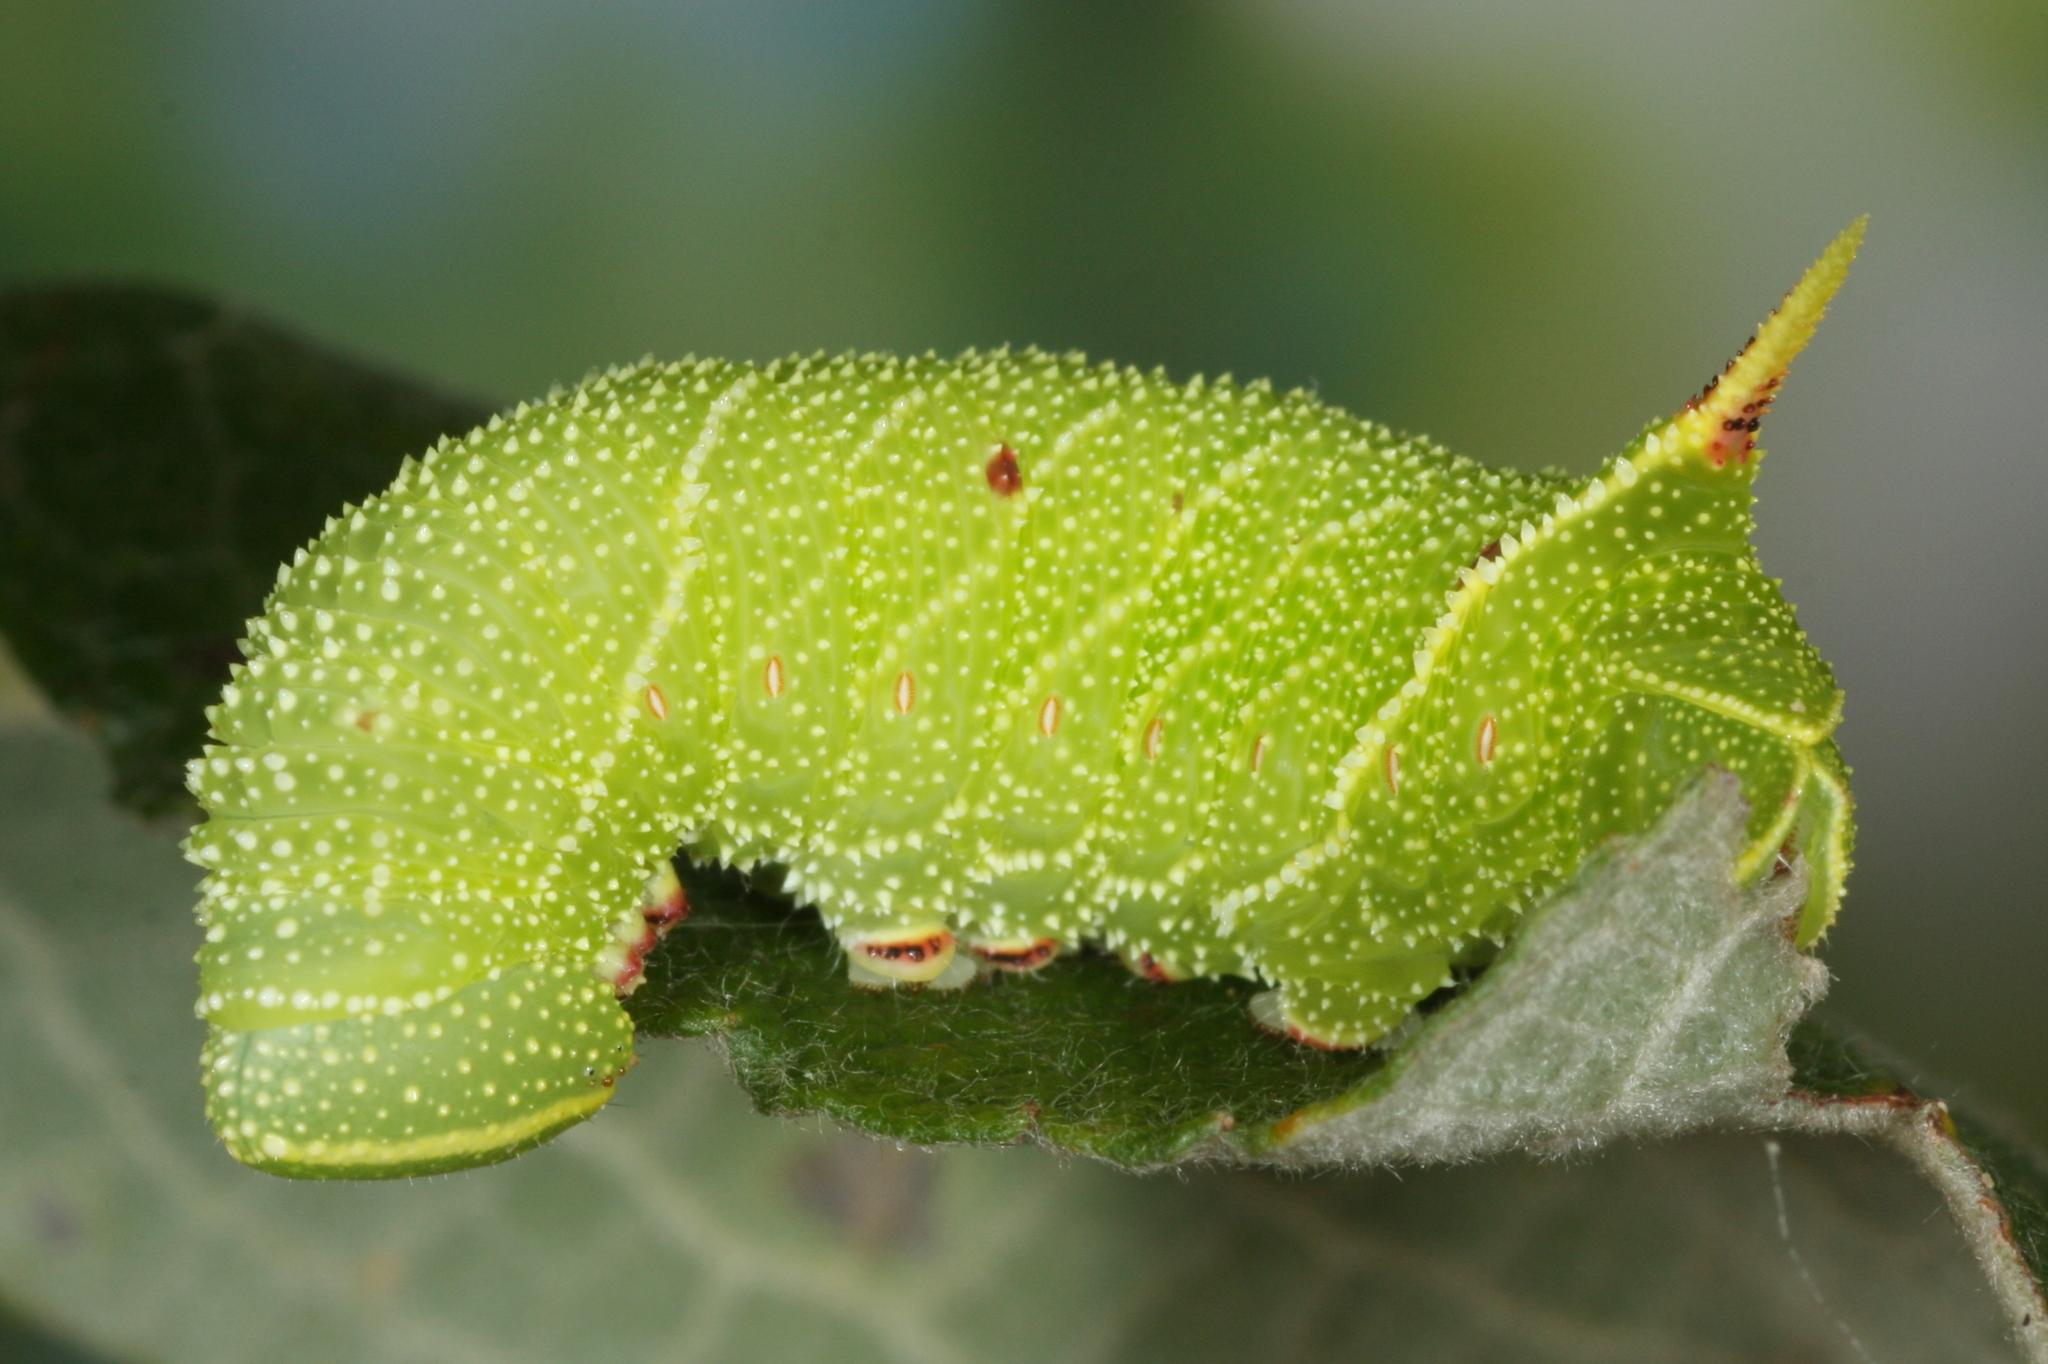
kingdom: Animalia
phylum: Arthropoda
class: Insecta
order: Lepidoptera
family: Sphingidae
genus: Laothoe
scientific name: Laothoe populi
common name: Poplar hawk-moth
